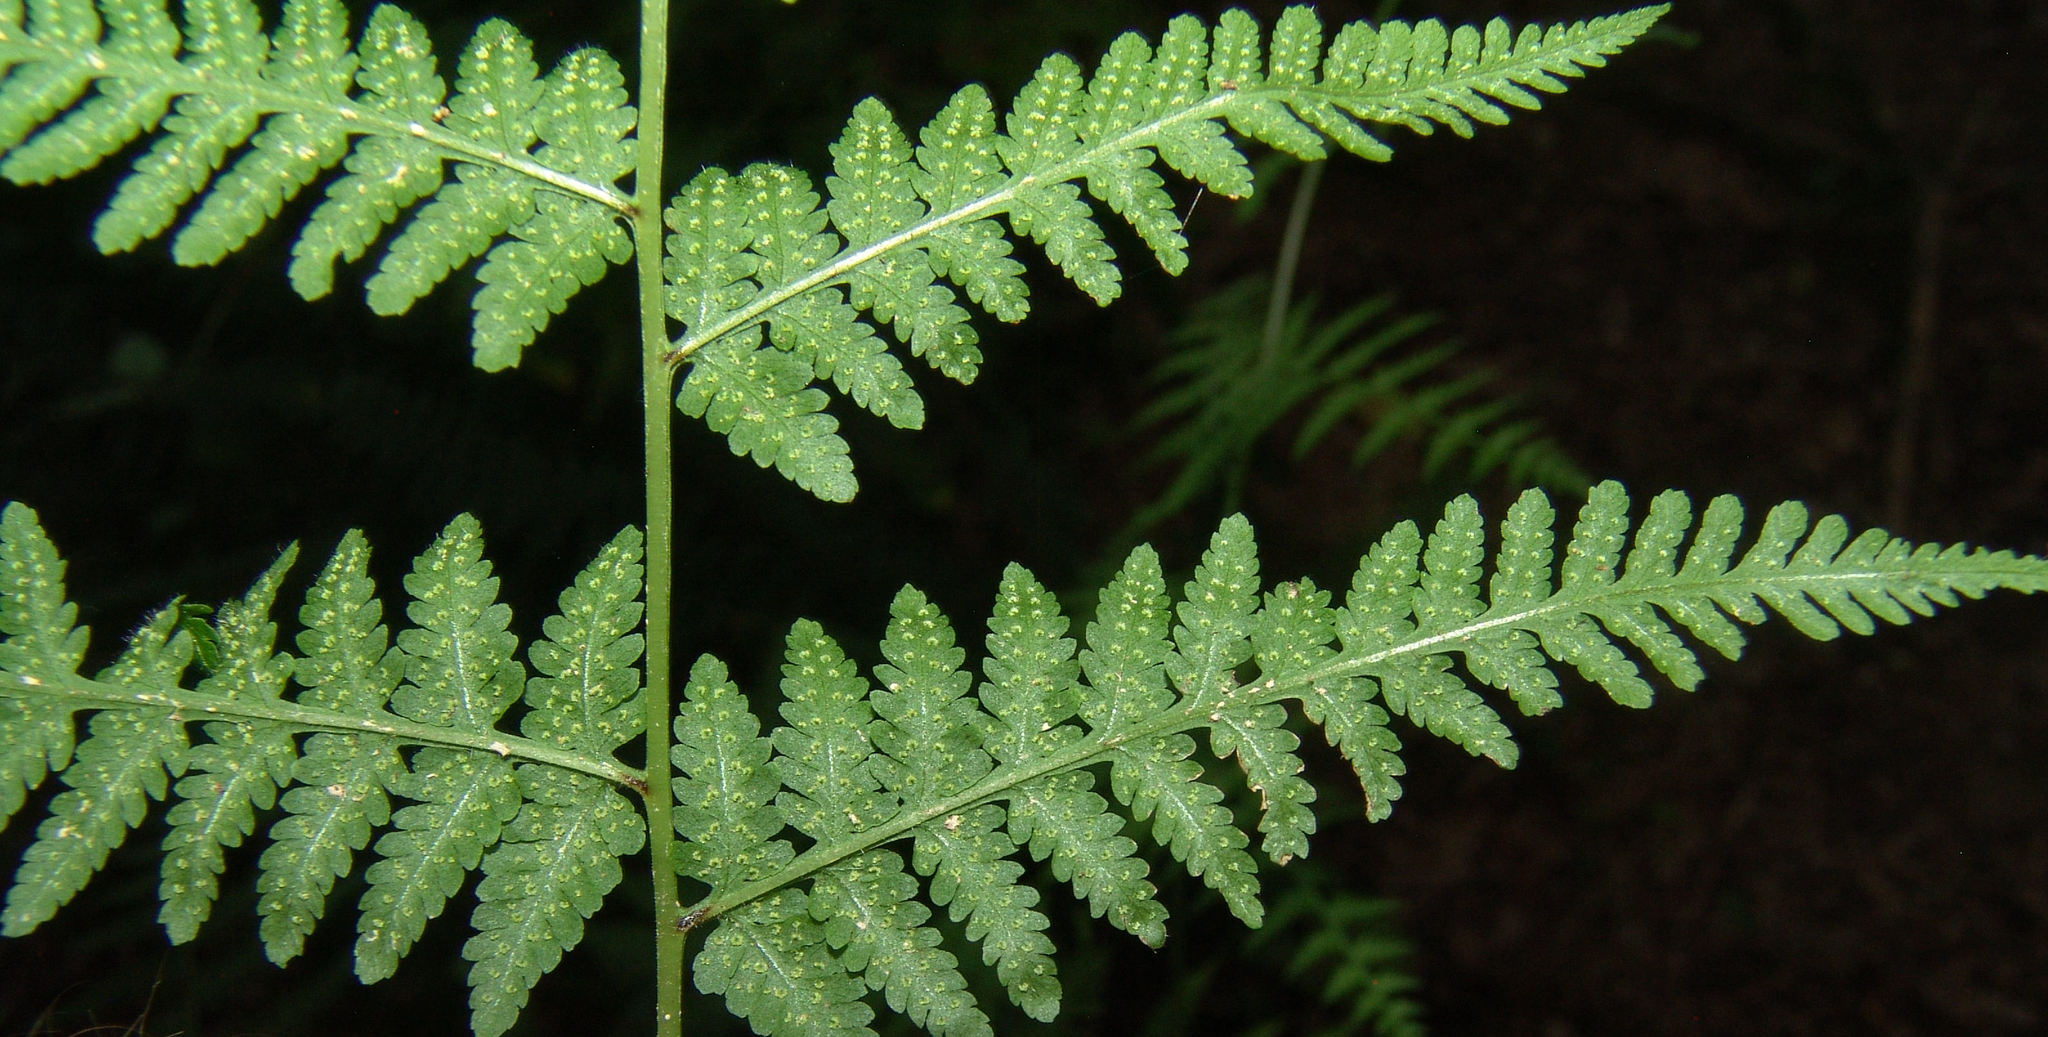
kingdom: Plantae
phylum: Tracheophyta
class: Polypodiopsida
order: Polypodiales
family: Thelypteridaceae
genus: Macrothelypteris
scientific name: Macrothelypteris torresiana
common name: Swordfern
